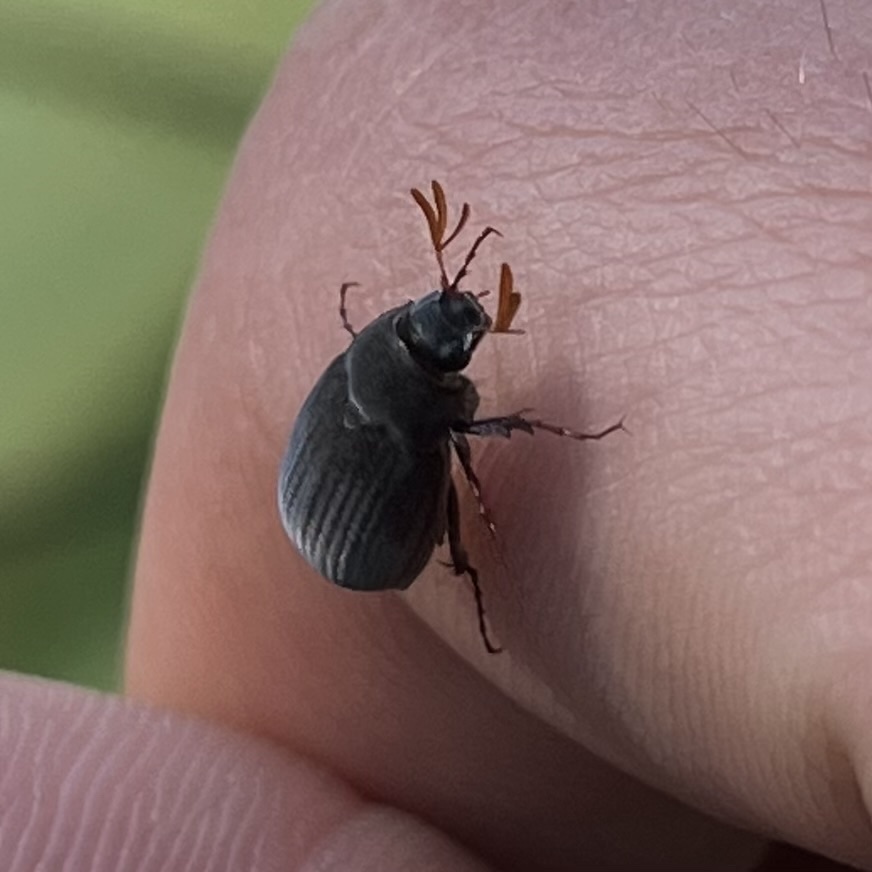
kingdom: Animalia
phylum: Arthropoda
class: Insecta
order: Coleoptera
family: Scarabaeidae
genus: Maladera
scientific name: Maladera holosericea
